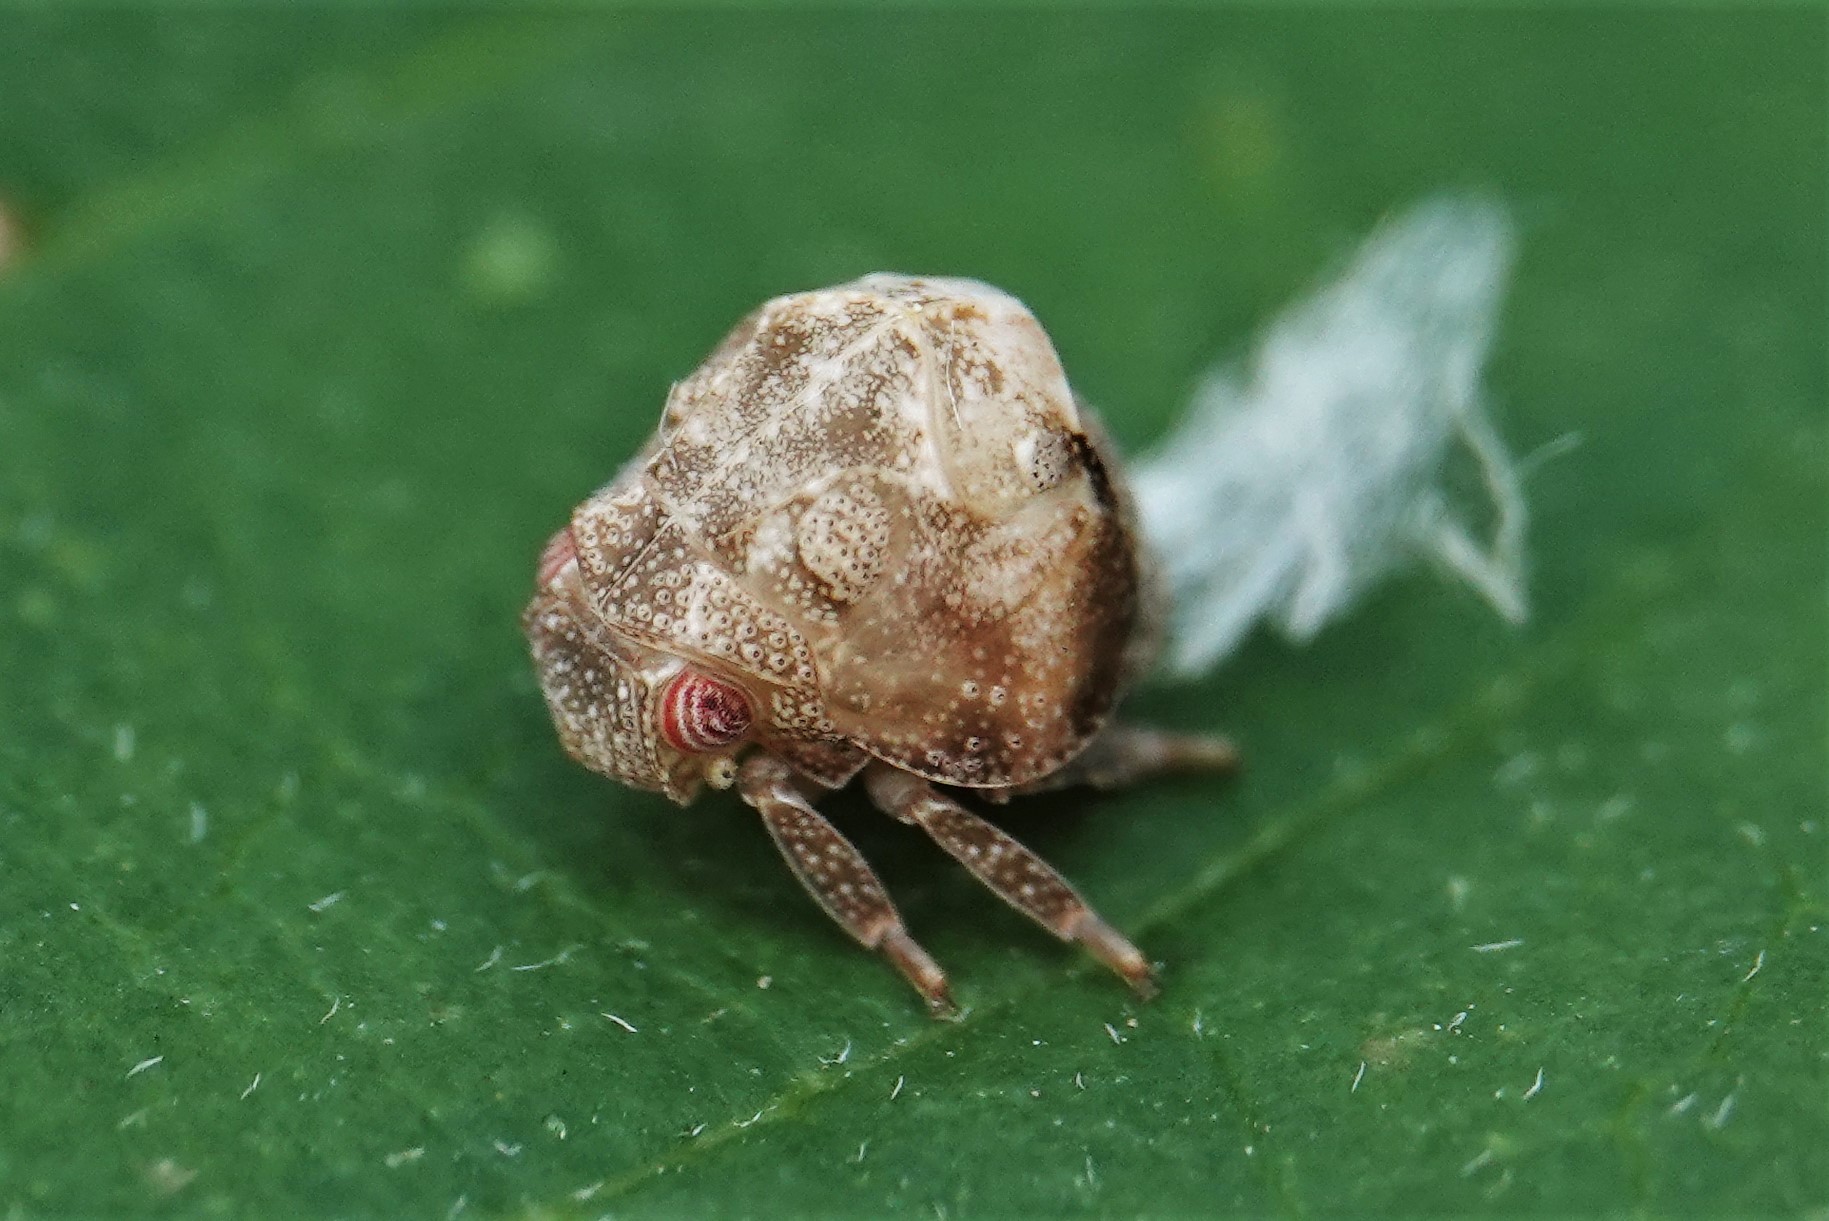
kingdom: Animalia
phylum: Arthropoda
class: Insecta
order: Hemiptera
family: Acanaloniidae
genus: Acanalonia
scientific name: Acanalonia bivittata
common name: Two-striped planthopper
